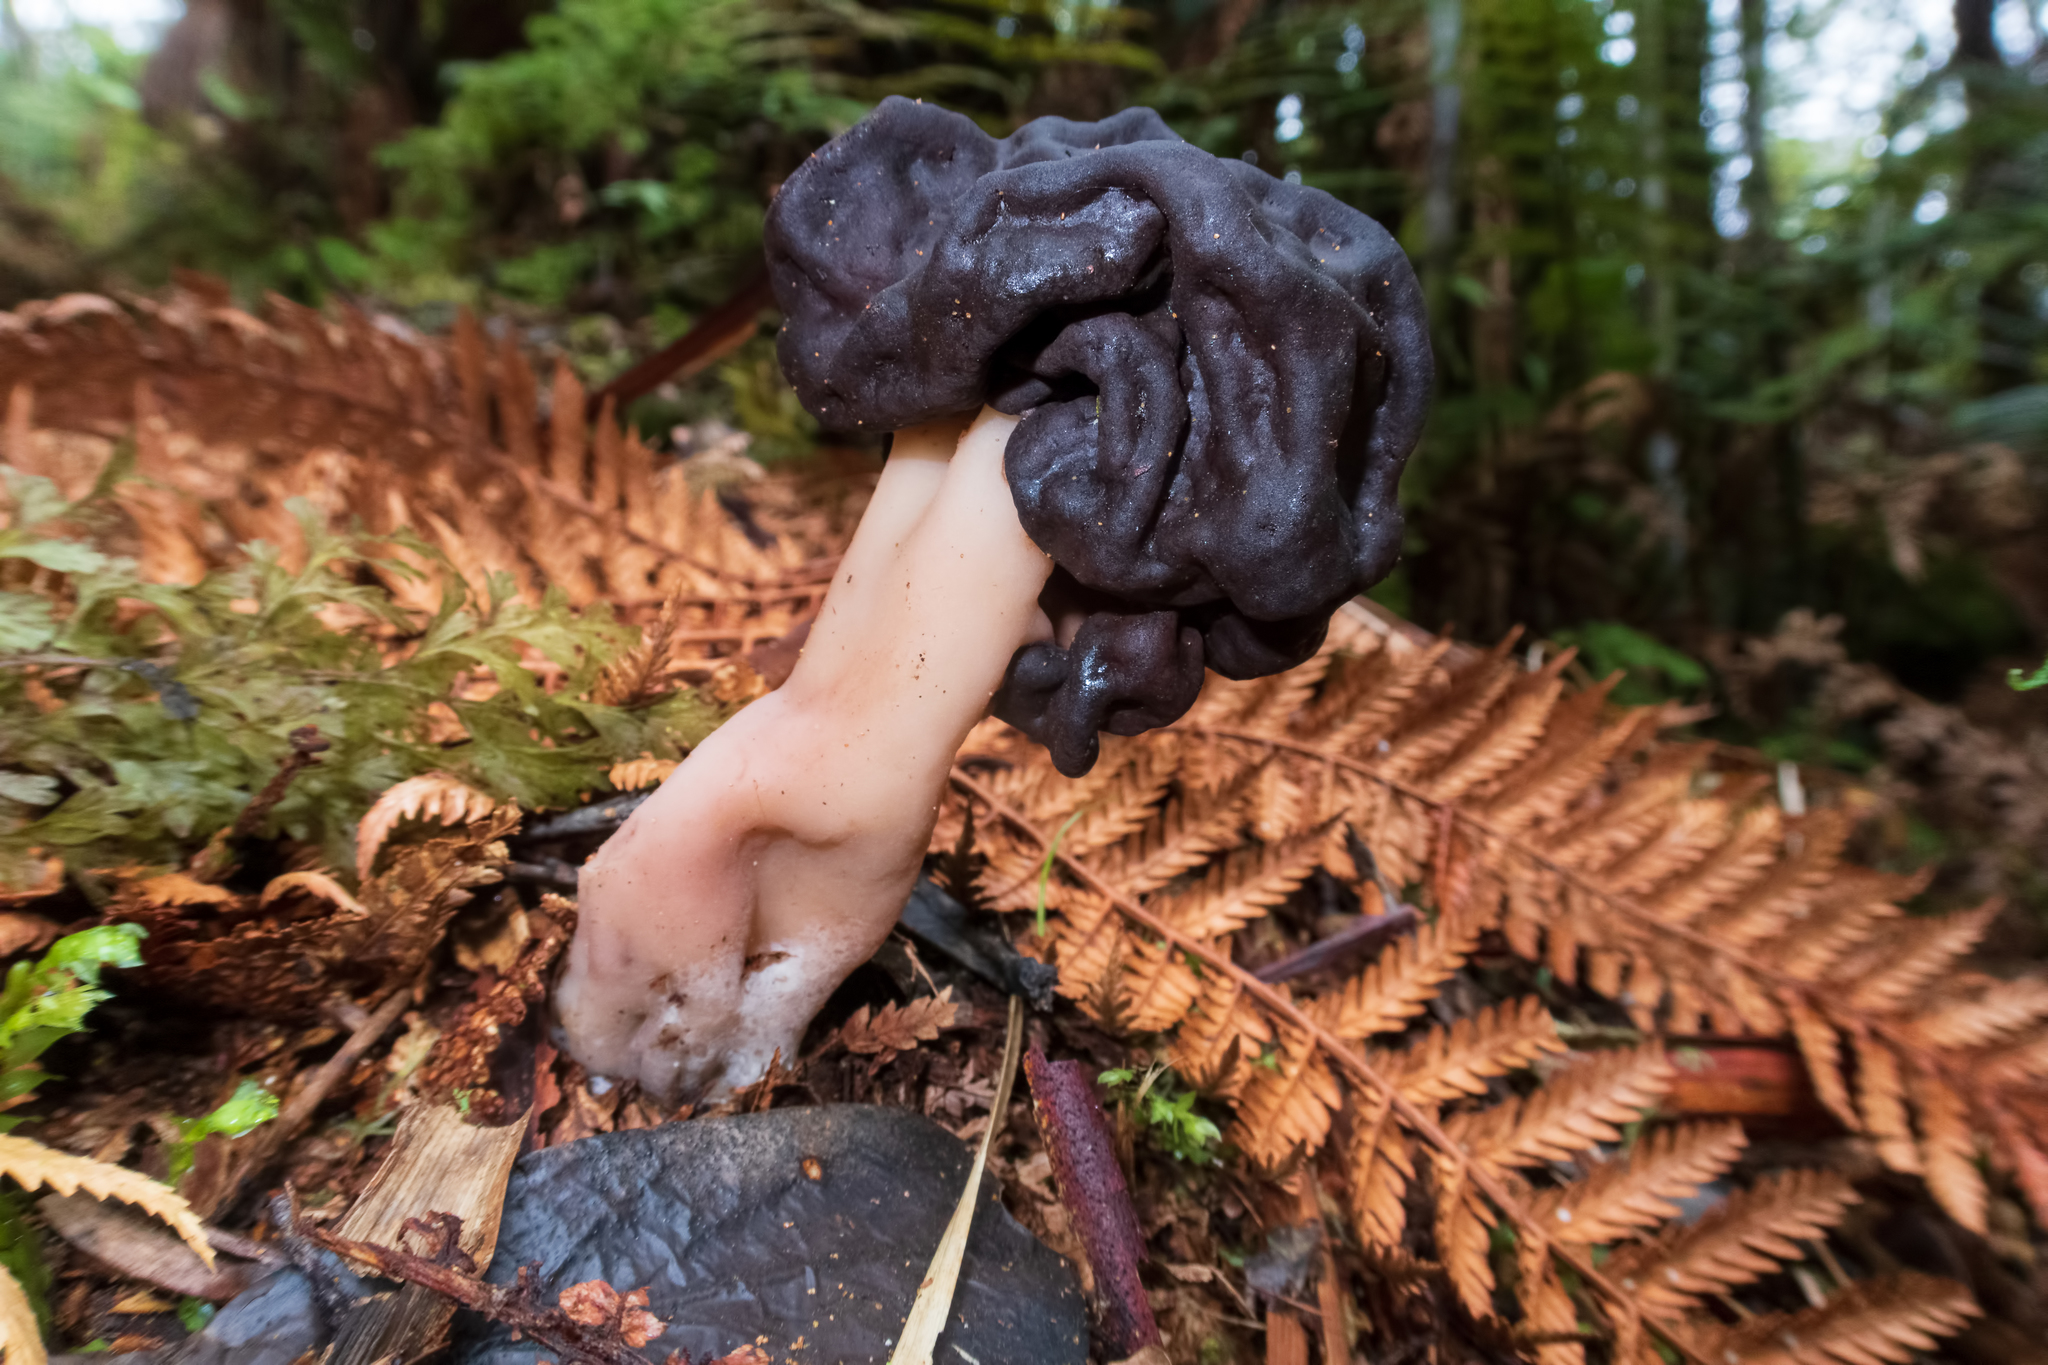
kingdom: Fungi
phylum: Ascomycota
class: Pezizomycetes
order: Pezizales
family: Discinaceae
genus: Gyromitra
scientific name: Gyromitra tasmanica
